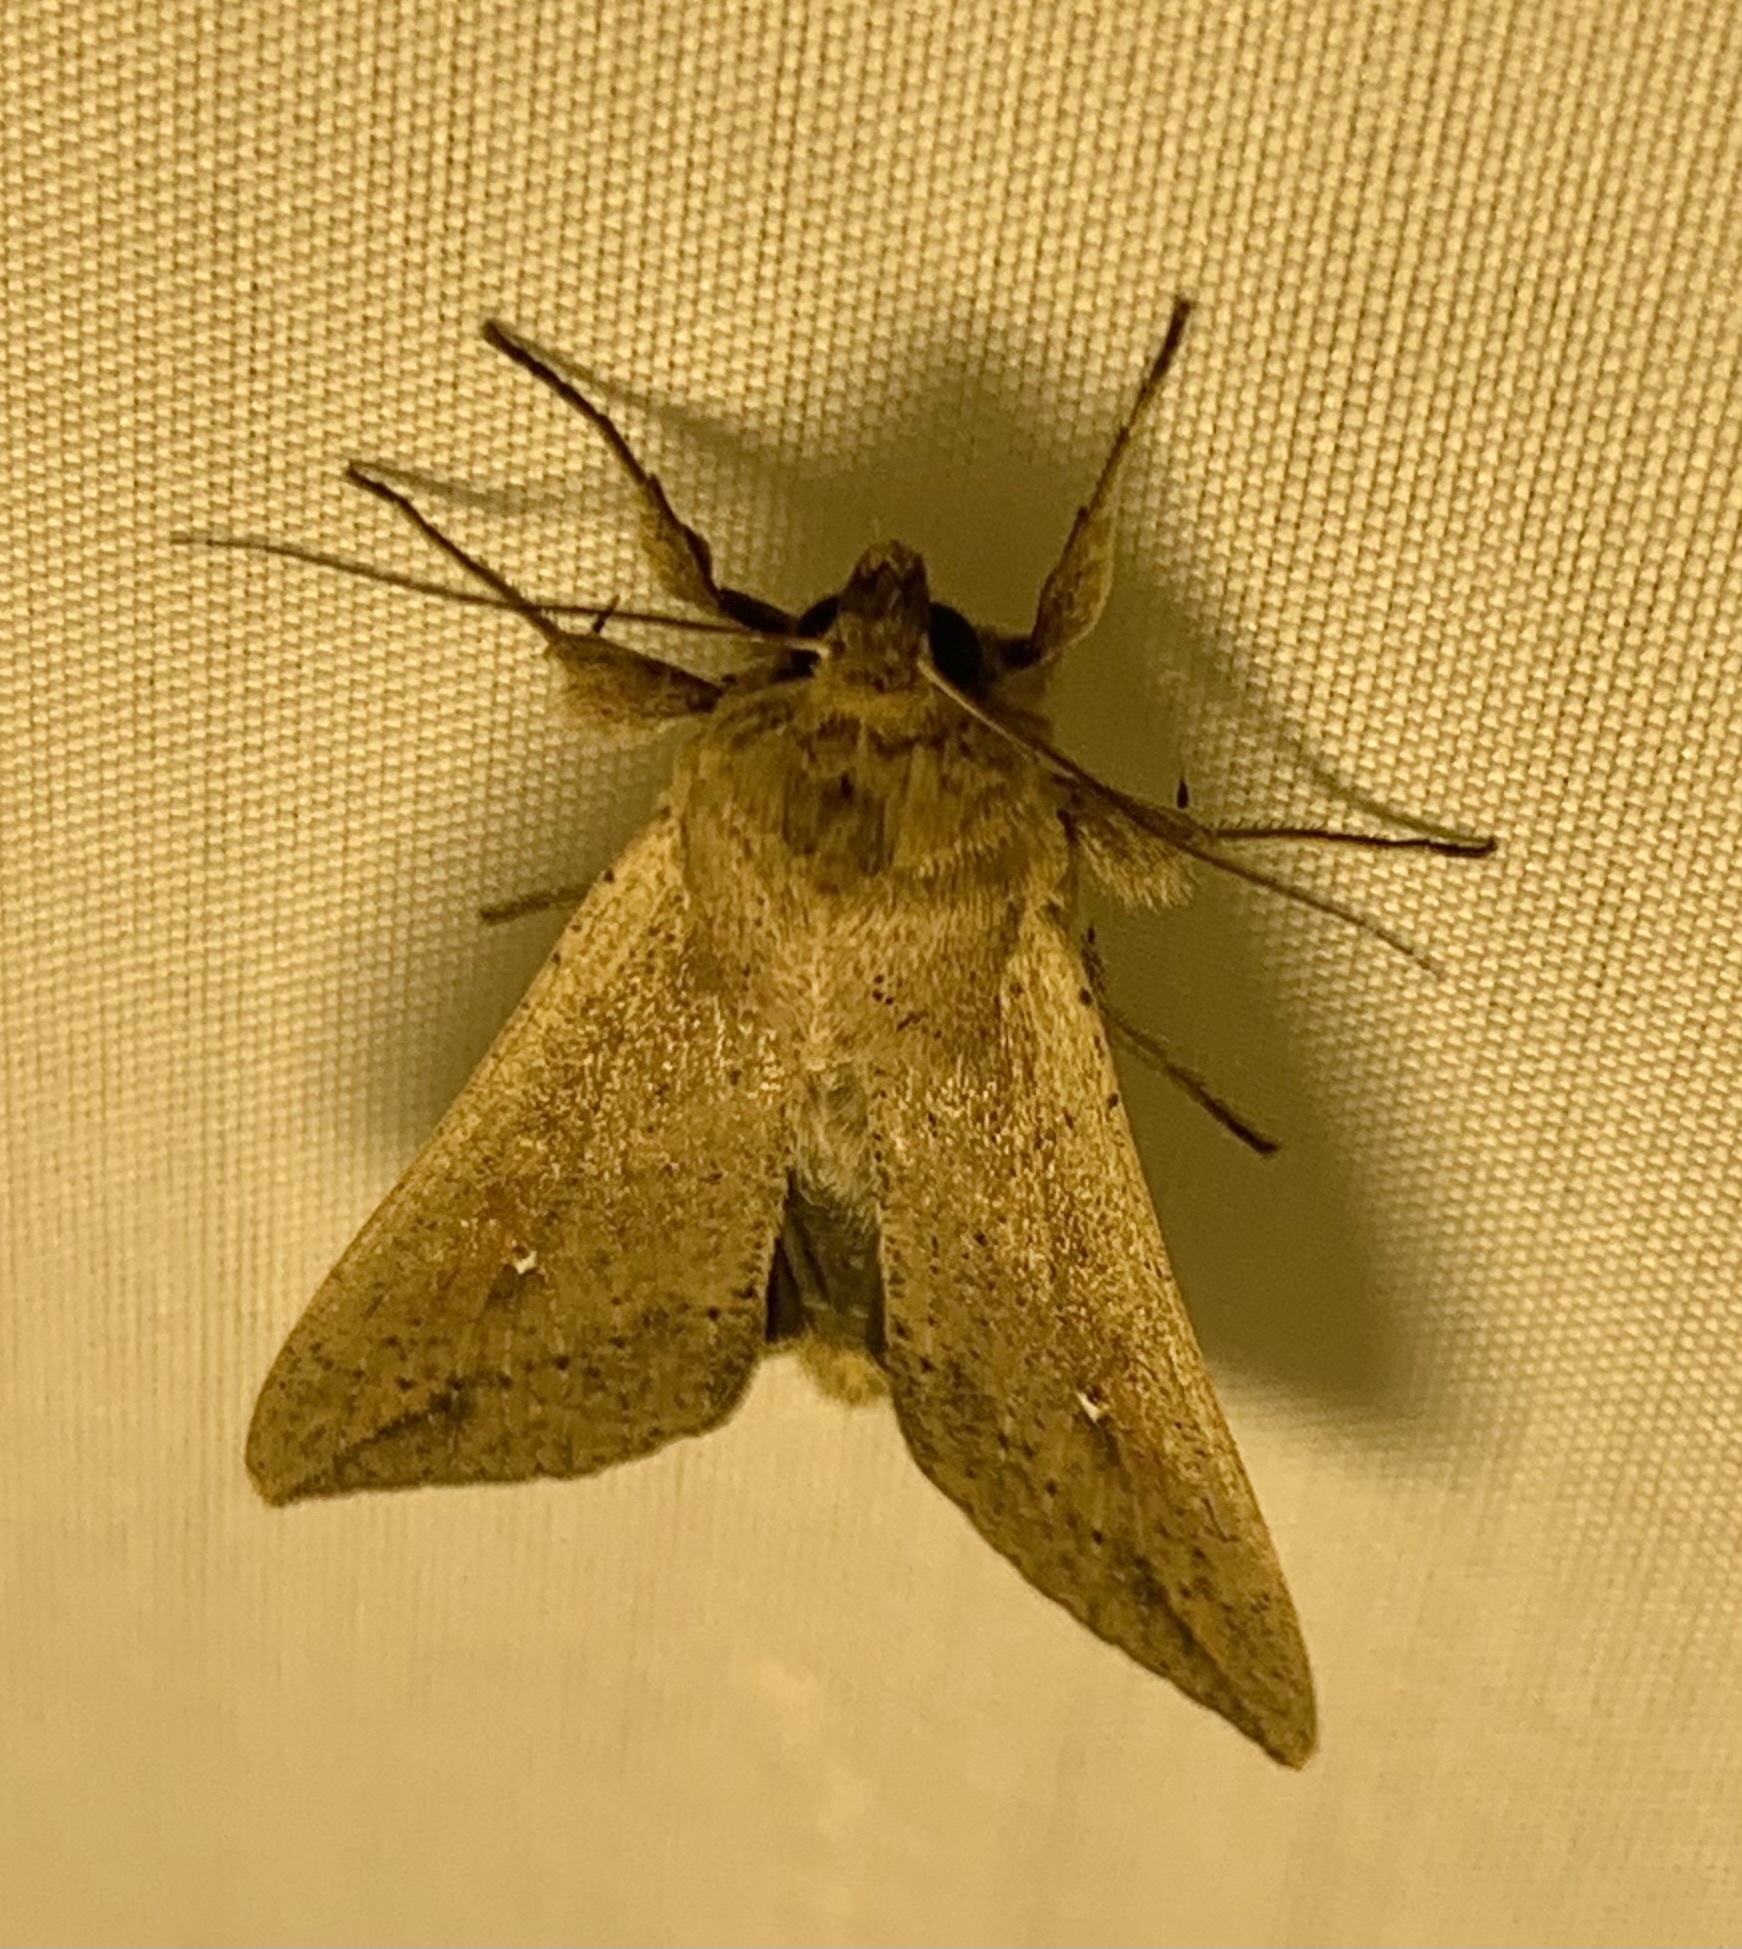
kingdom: Animalia
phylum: Arthropoda
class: Insecta
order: Lepidoptera
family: Noctuidae
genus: Mythimna
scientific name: Mythimna unipuncta
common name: White-speck
